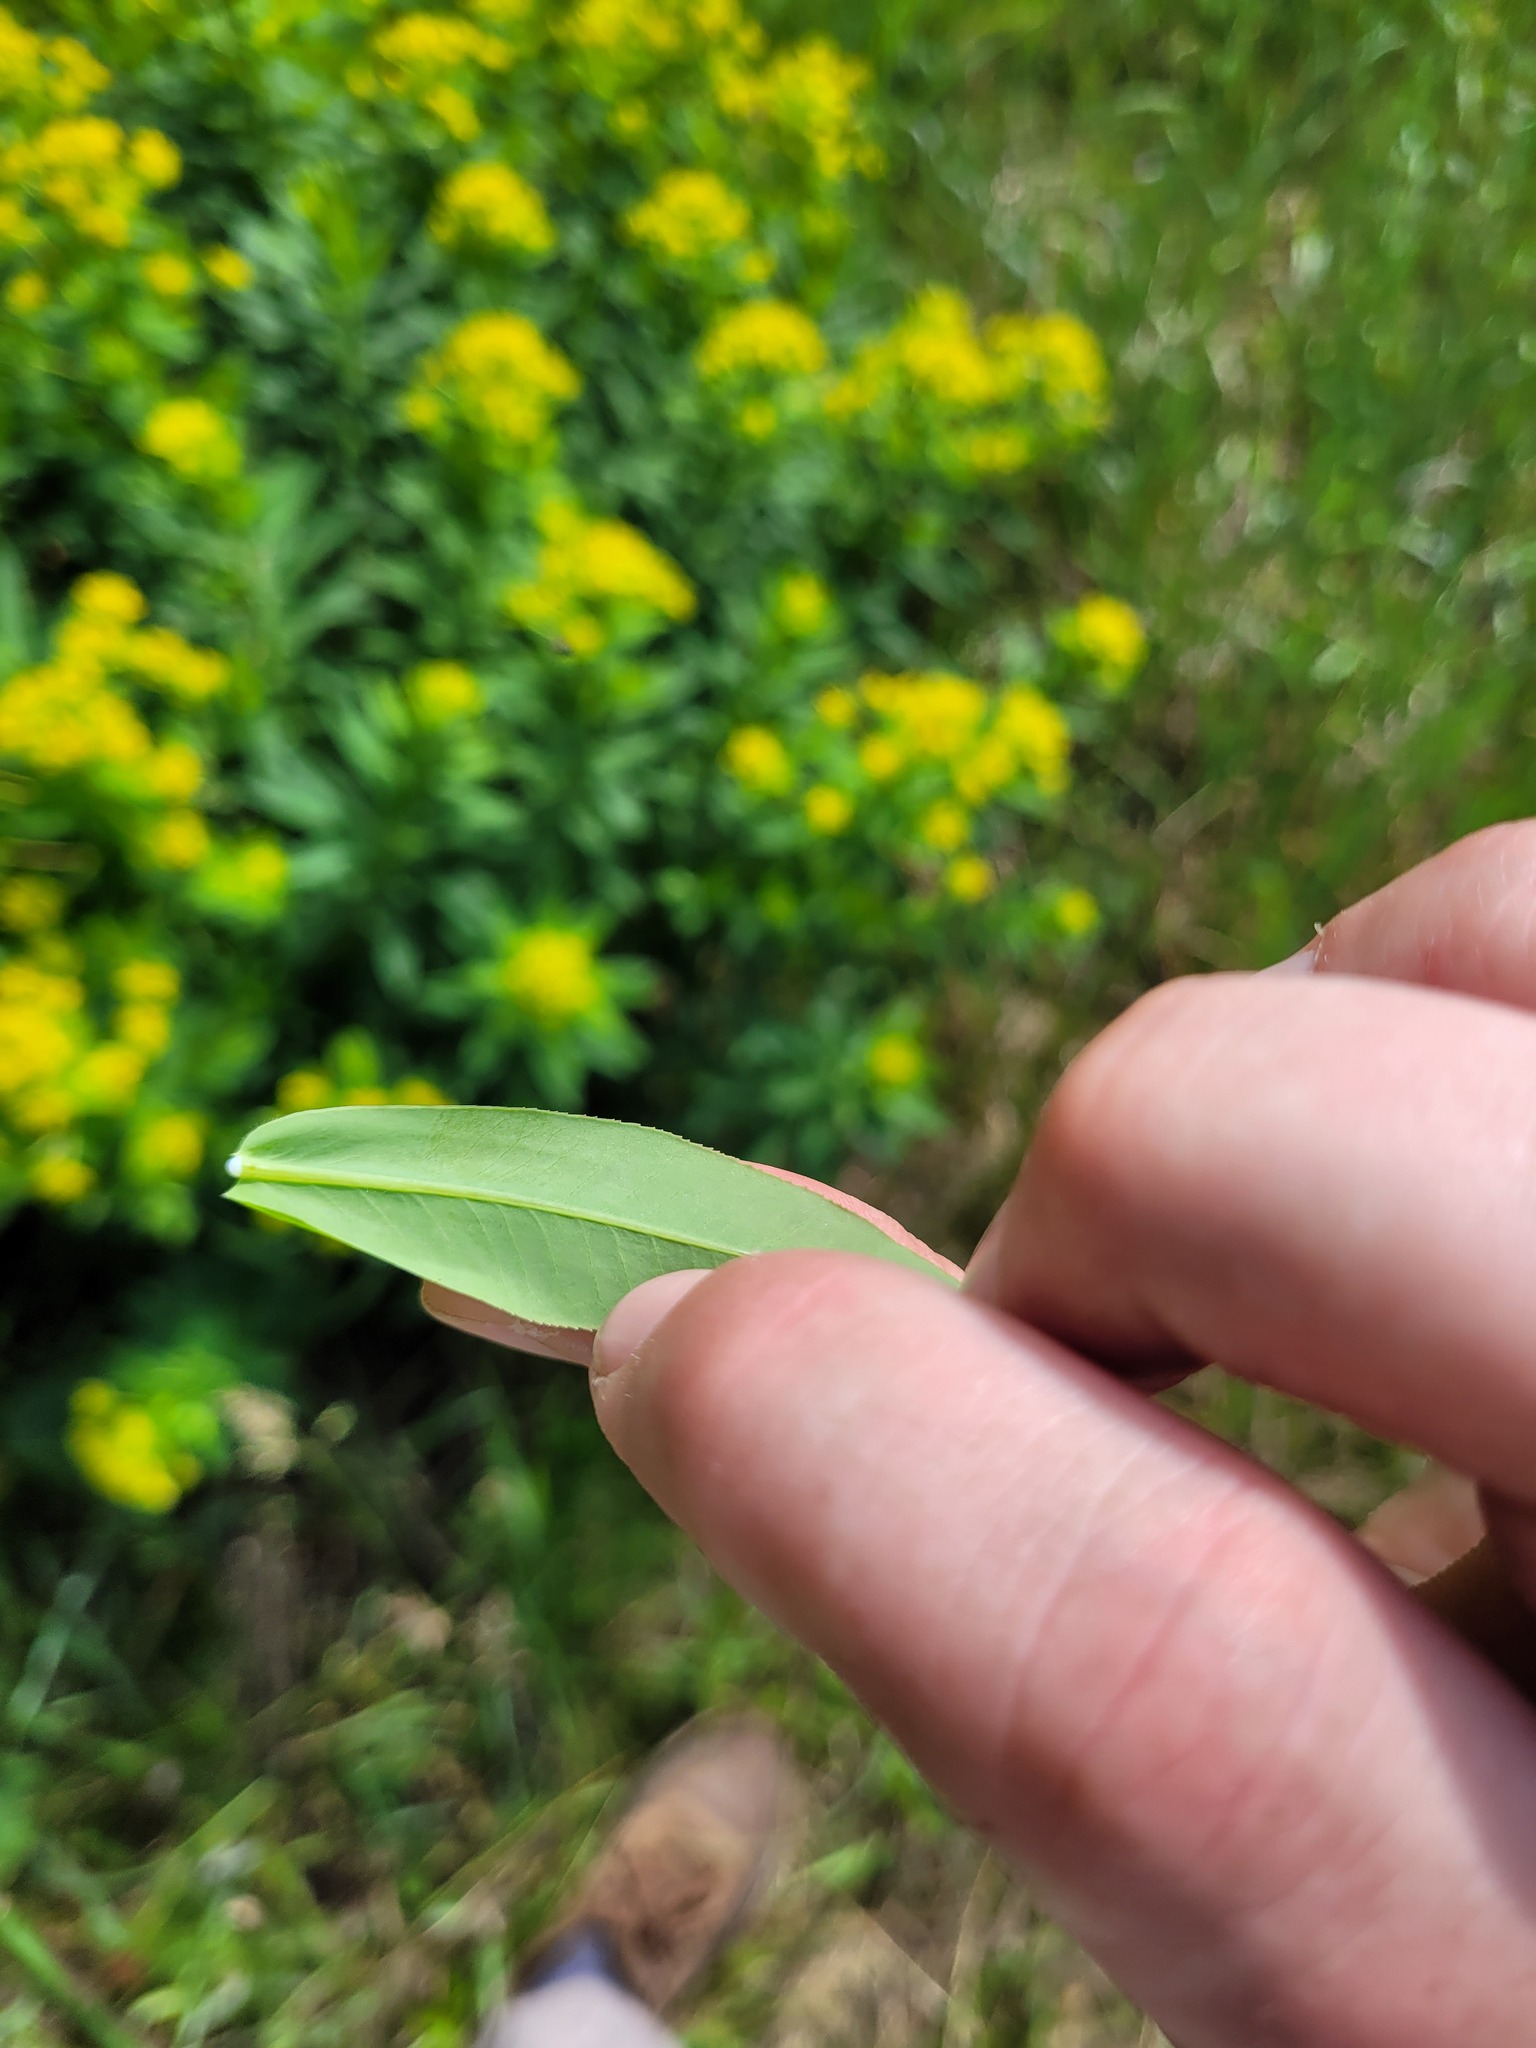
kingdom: Plantae
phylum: Tracheophyta
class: Magnoliopsida
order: Malpighiales
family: Euphorbiaceae
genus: Euphorbia
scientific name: Euphorbia semivillosa
